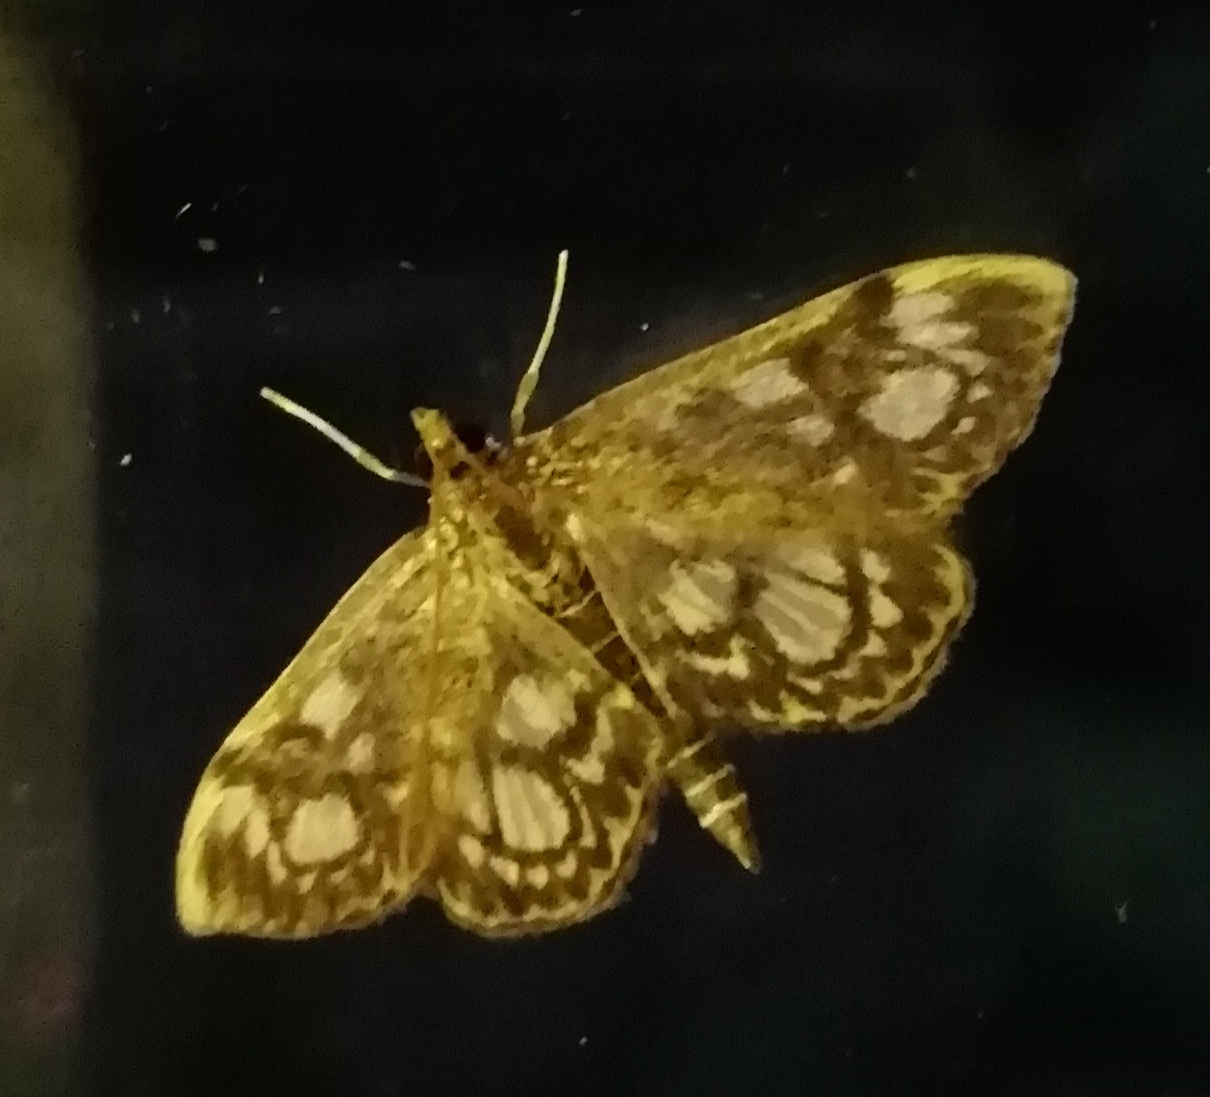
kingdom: Animalia
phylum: Arthropoda
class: Insecta
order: Lepidoptera
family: Crambidae
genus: Anania
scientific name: Anania coronata
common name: Elder pearl
